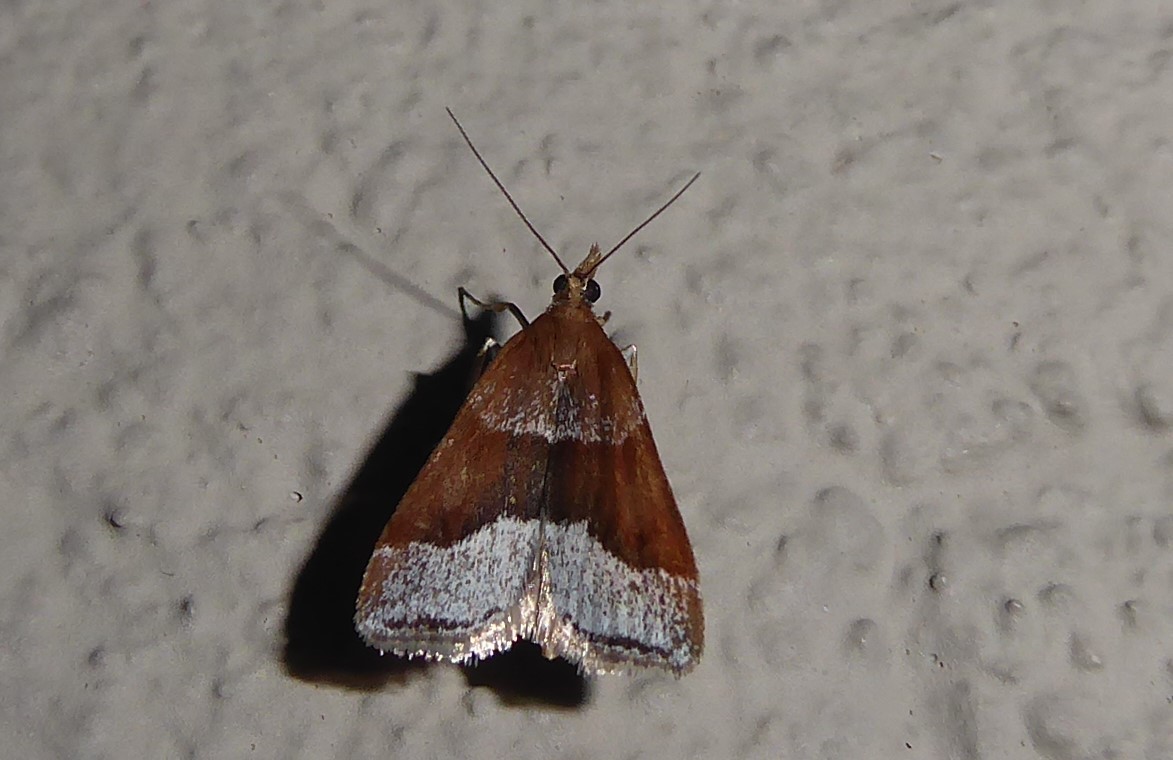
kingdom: Animalia
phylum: Arthropoda
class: Insecta
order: Lepidoptera
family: Crambidae
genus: Eudonia
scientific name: Eudonia feredayi
